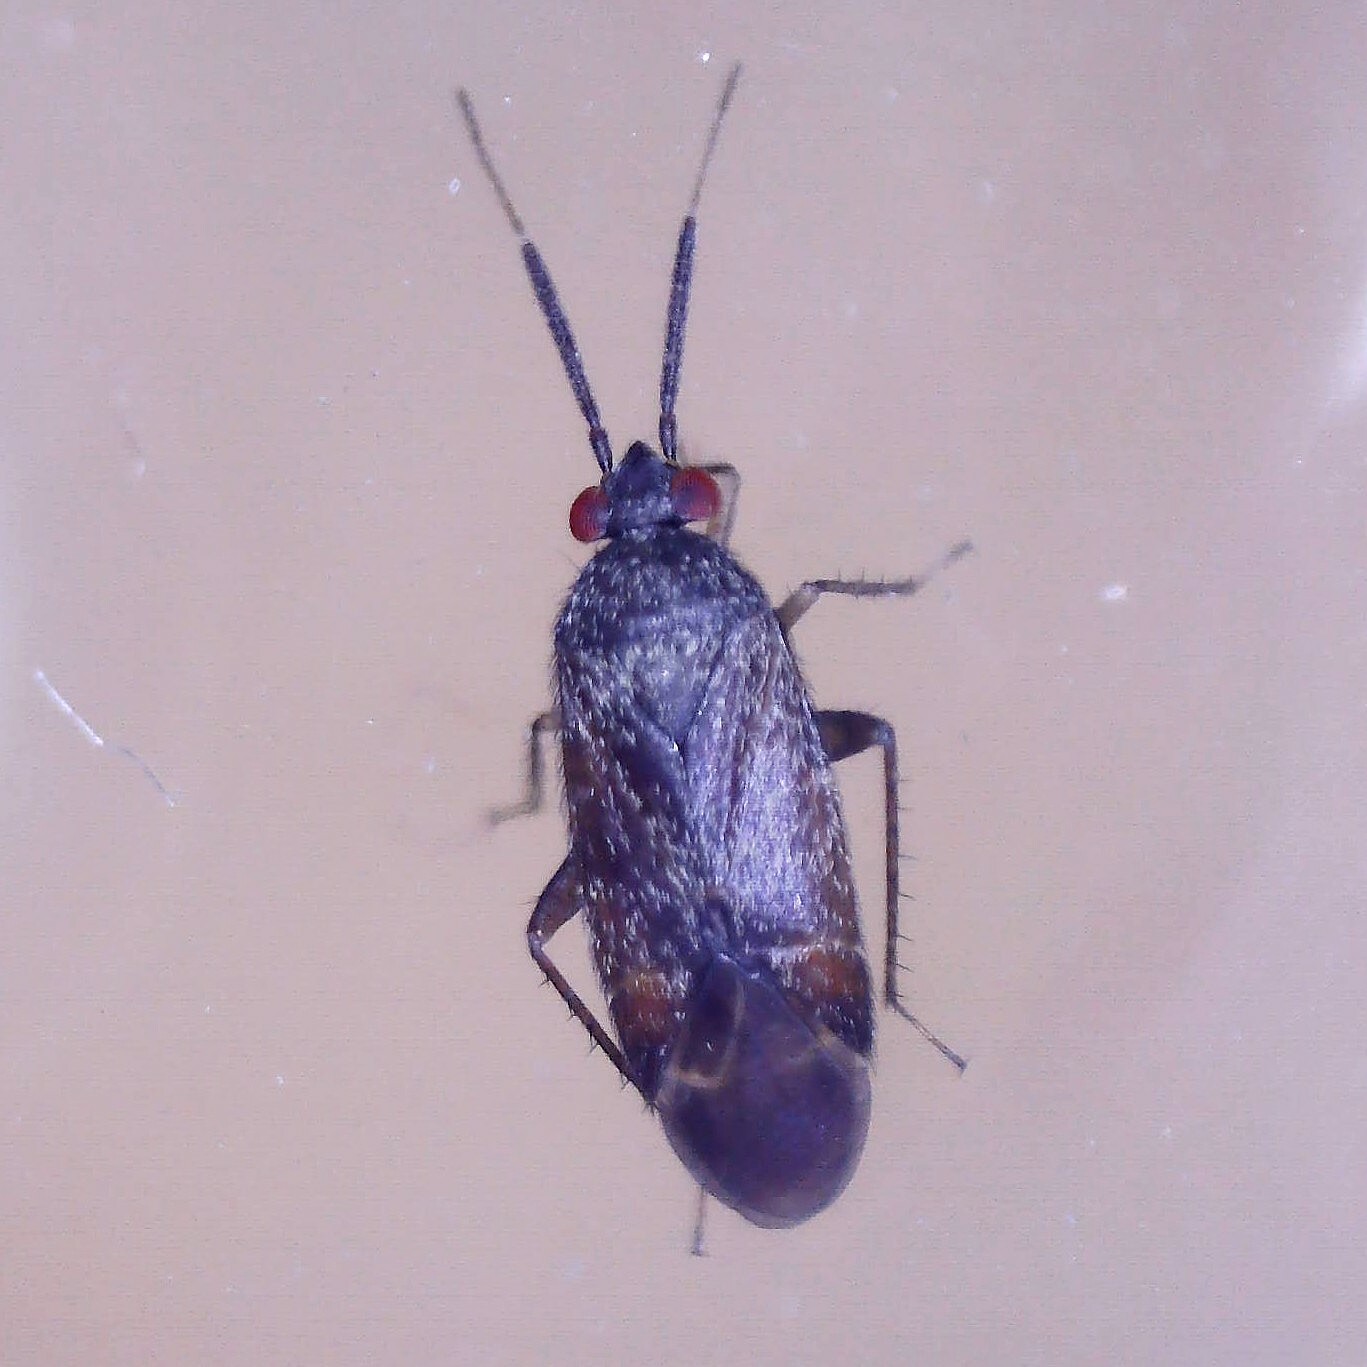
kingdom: Animalia
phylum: Arthropoda
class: Insecta
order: Hemiptera
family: Miridae
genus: Atractotomus
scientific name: Atractotomus magnicornis
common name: Plant bug
